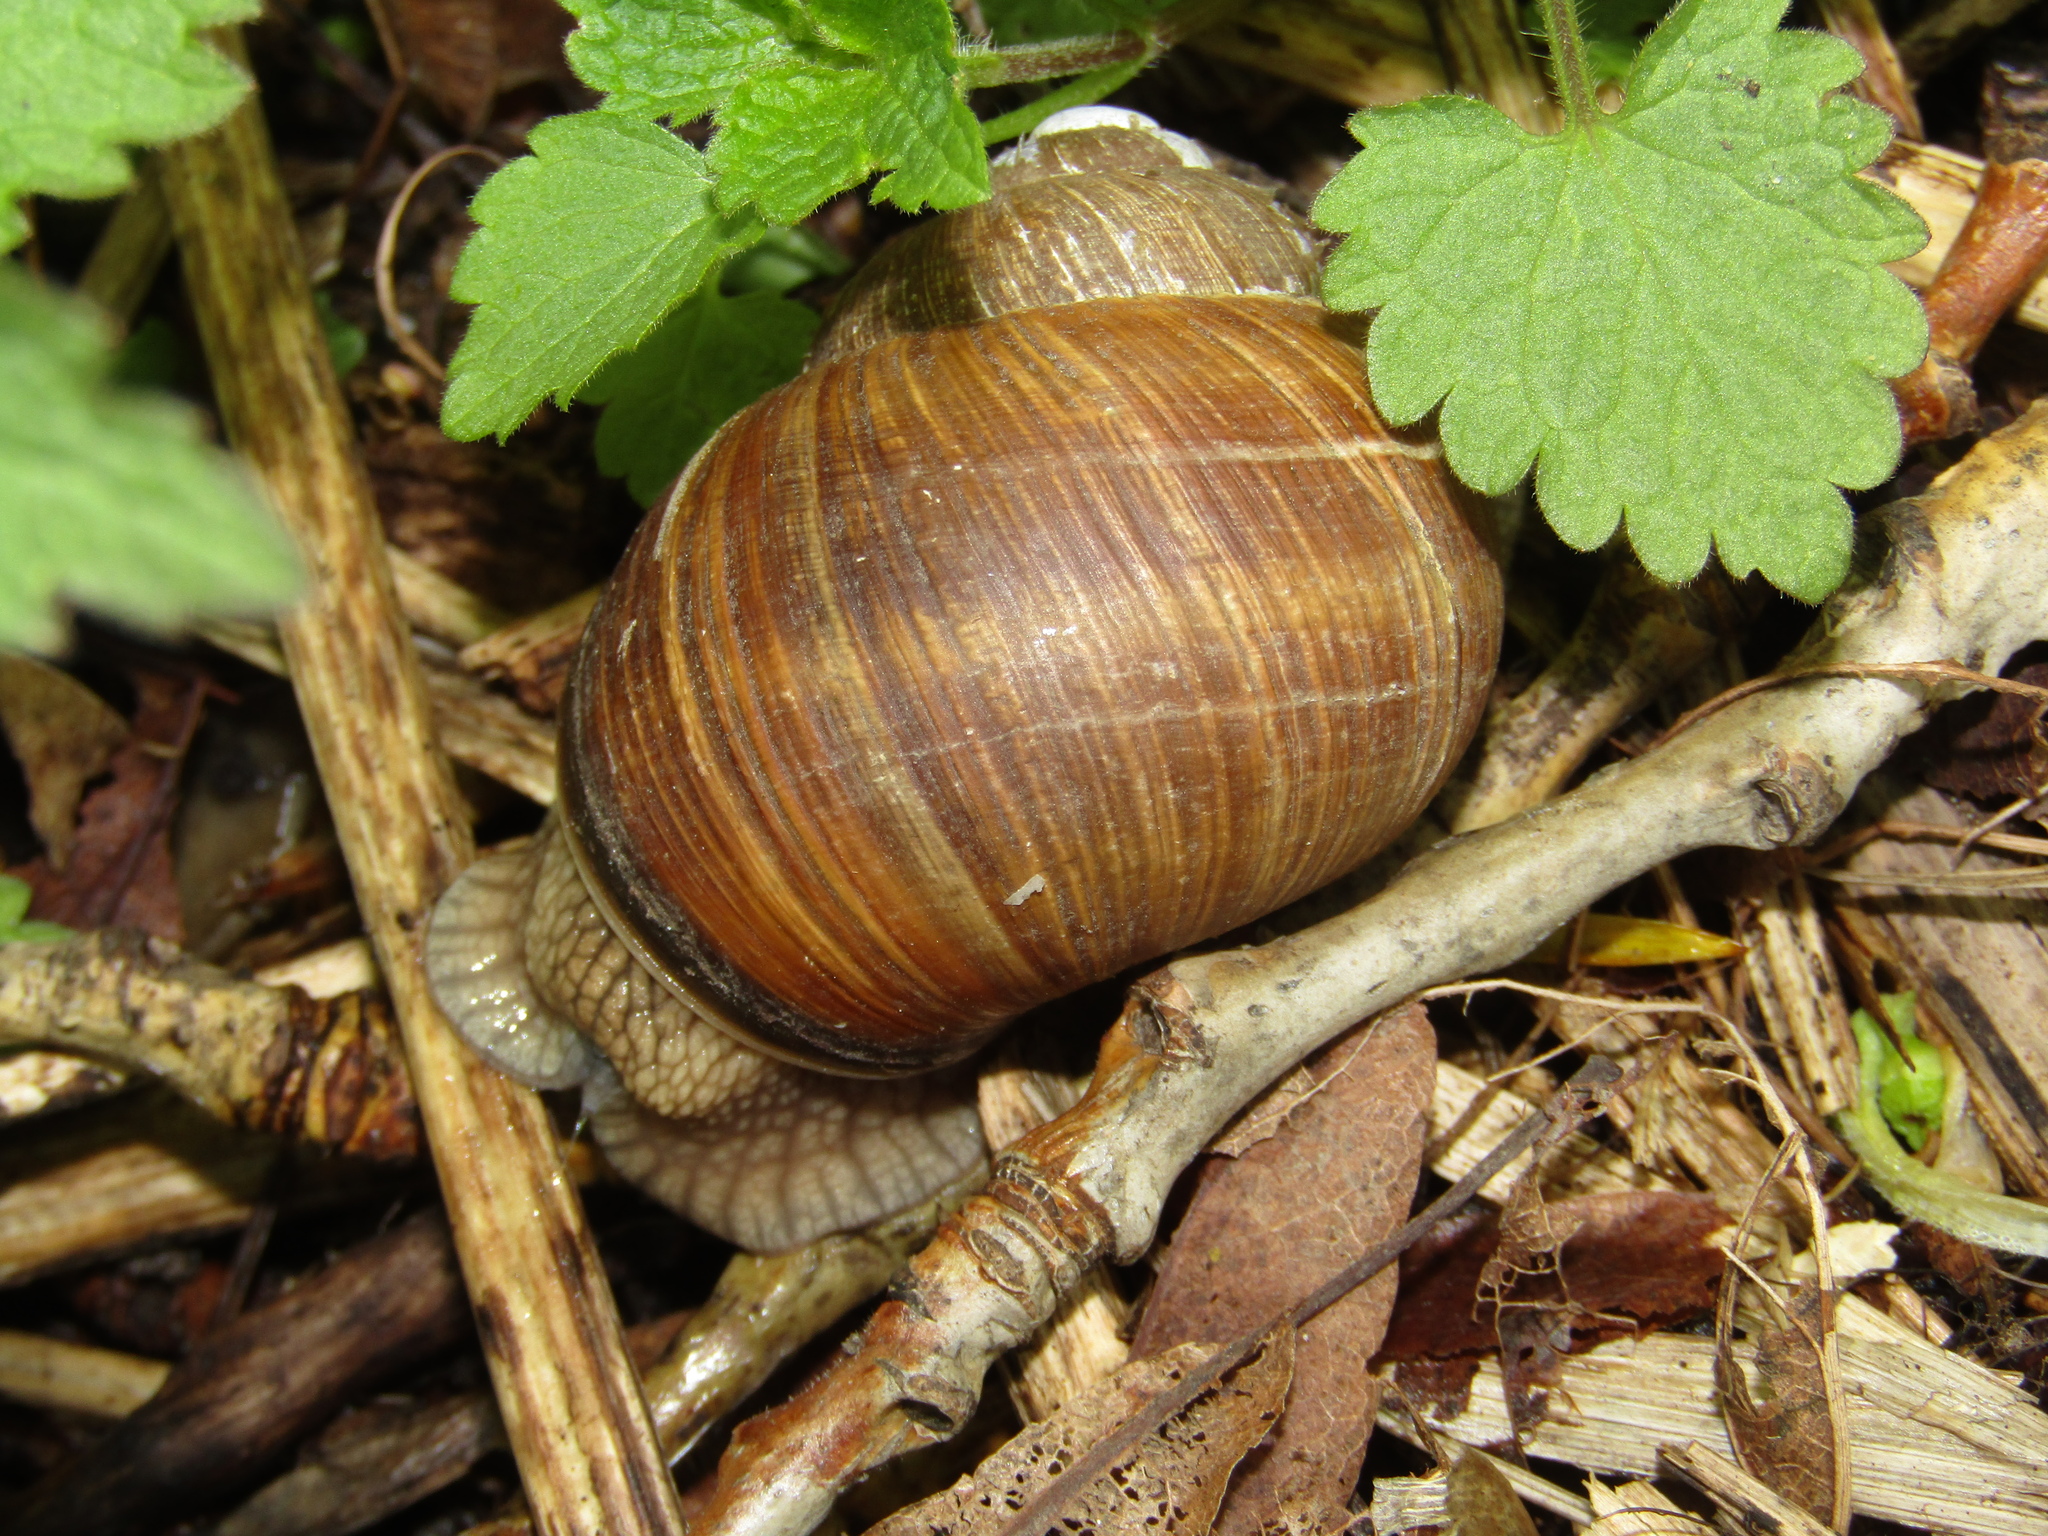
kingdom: Animalia
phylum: Mollusca
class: Gastropoda
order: Stylommatophora
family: Helicidae
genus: Helix
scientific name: Helix pomatia
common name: Roman snail
